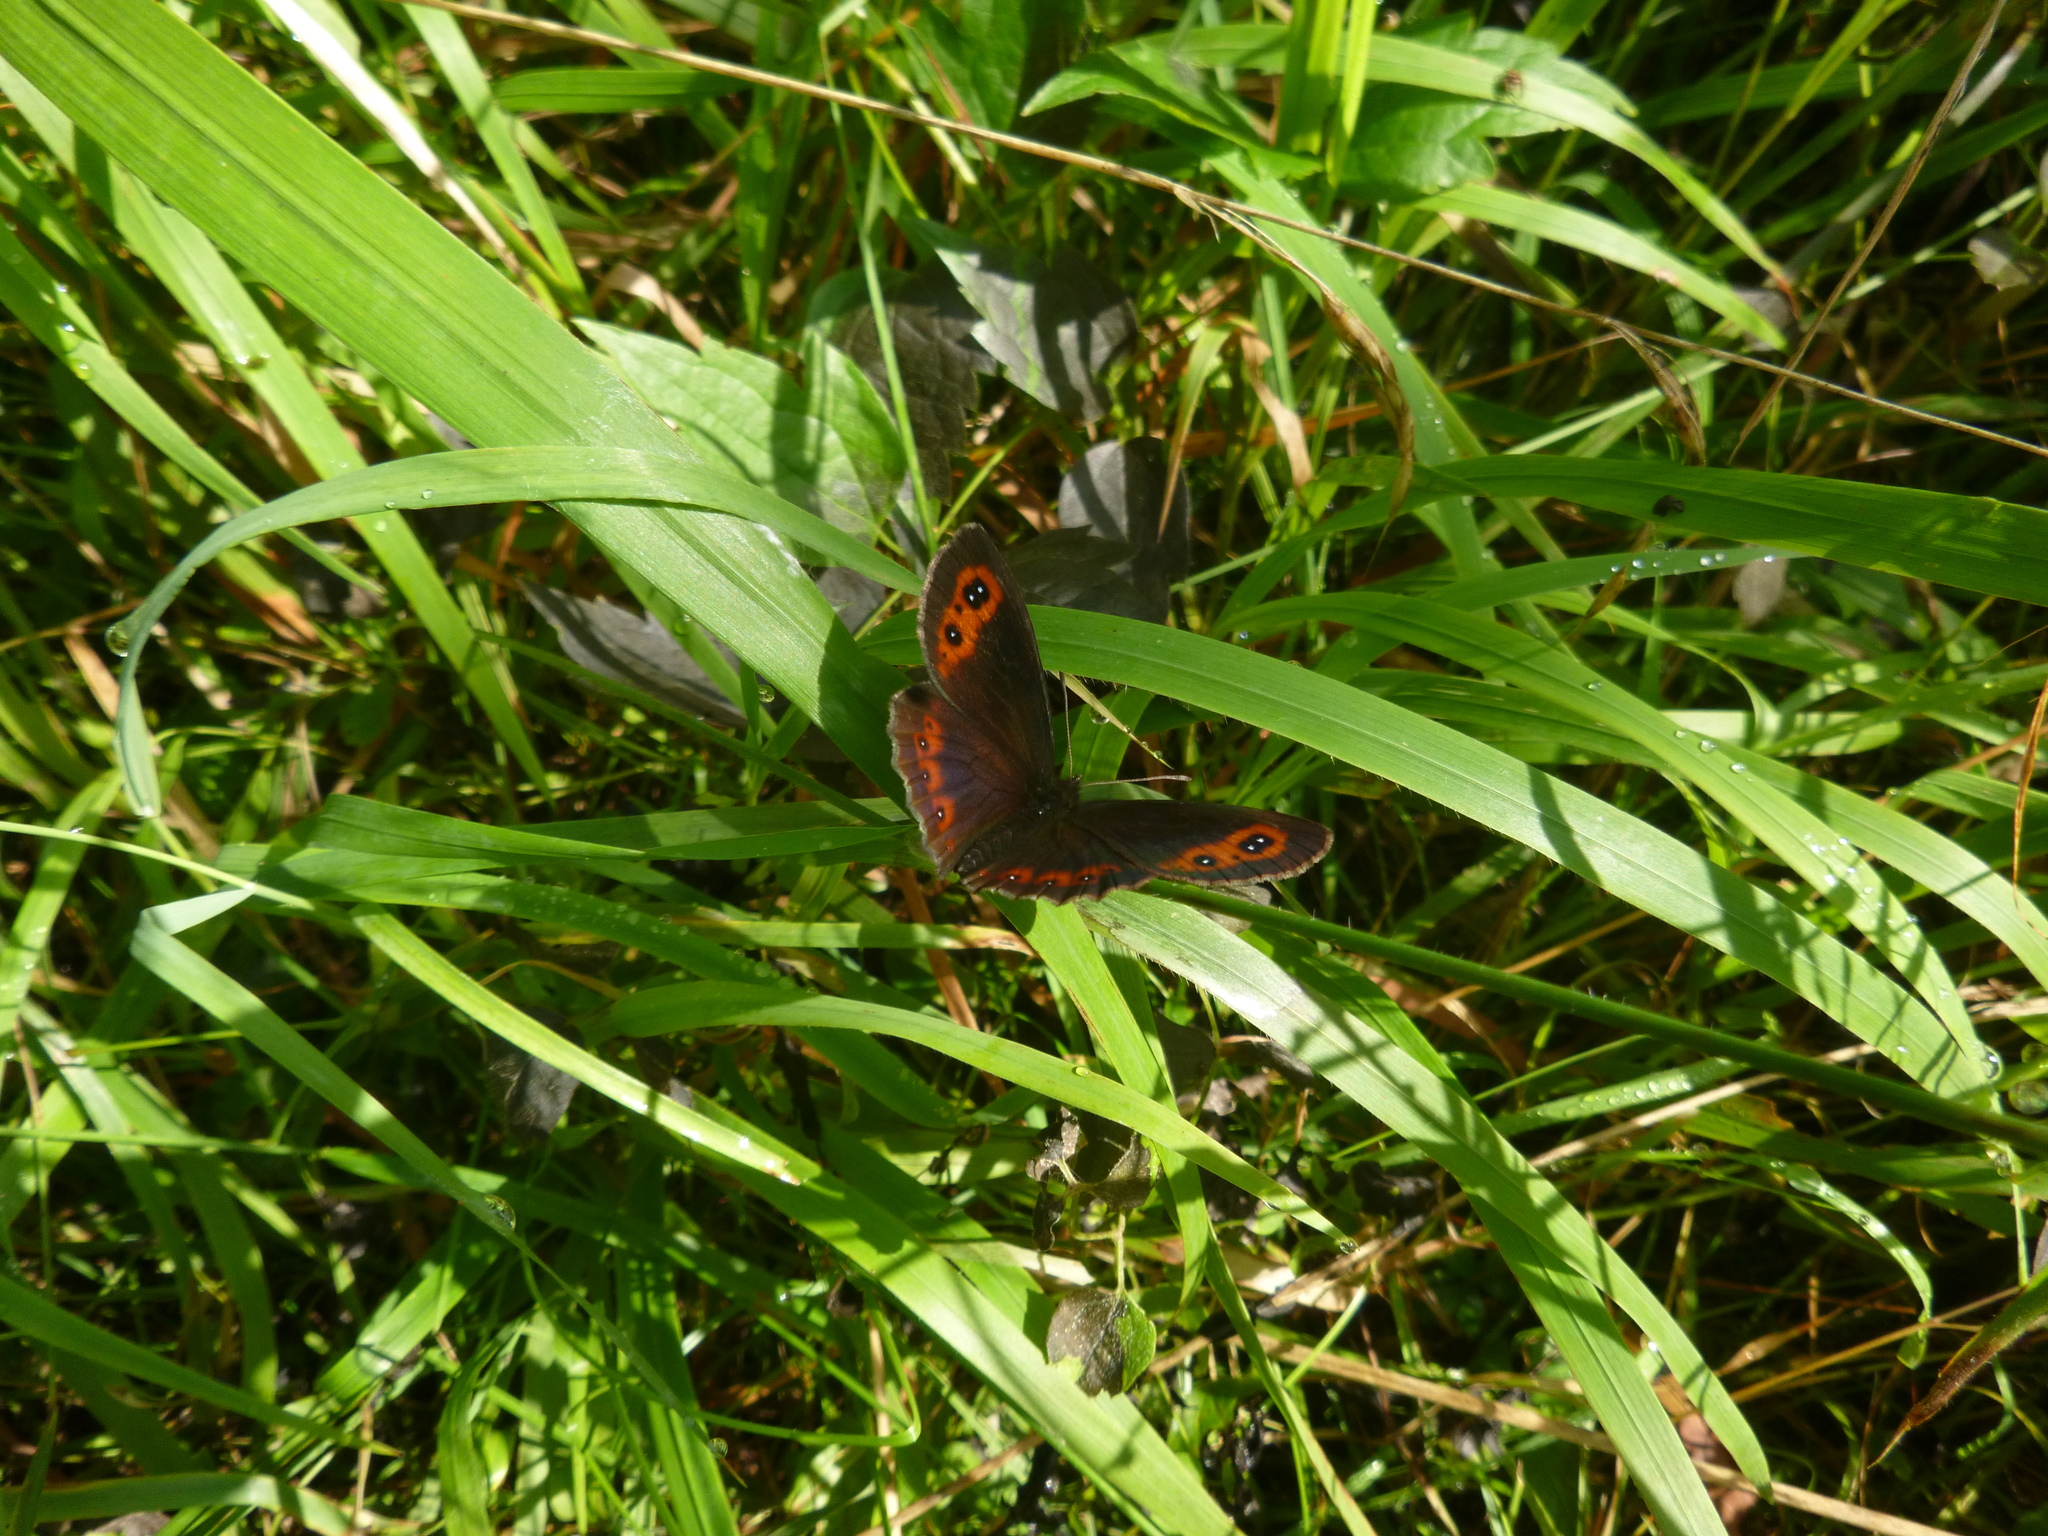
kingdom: Animalia
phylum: Arthropoda
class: Insecta
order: Lepidoptera
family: Nymphalidae
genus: Erebia
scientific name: Erebia aethiops
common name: Scotch argus
